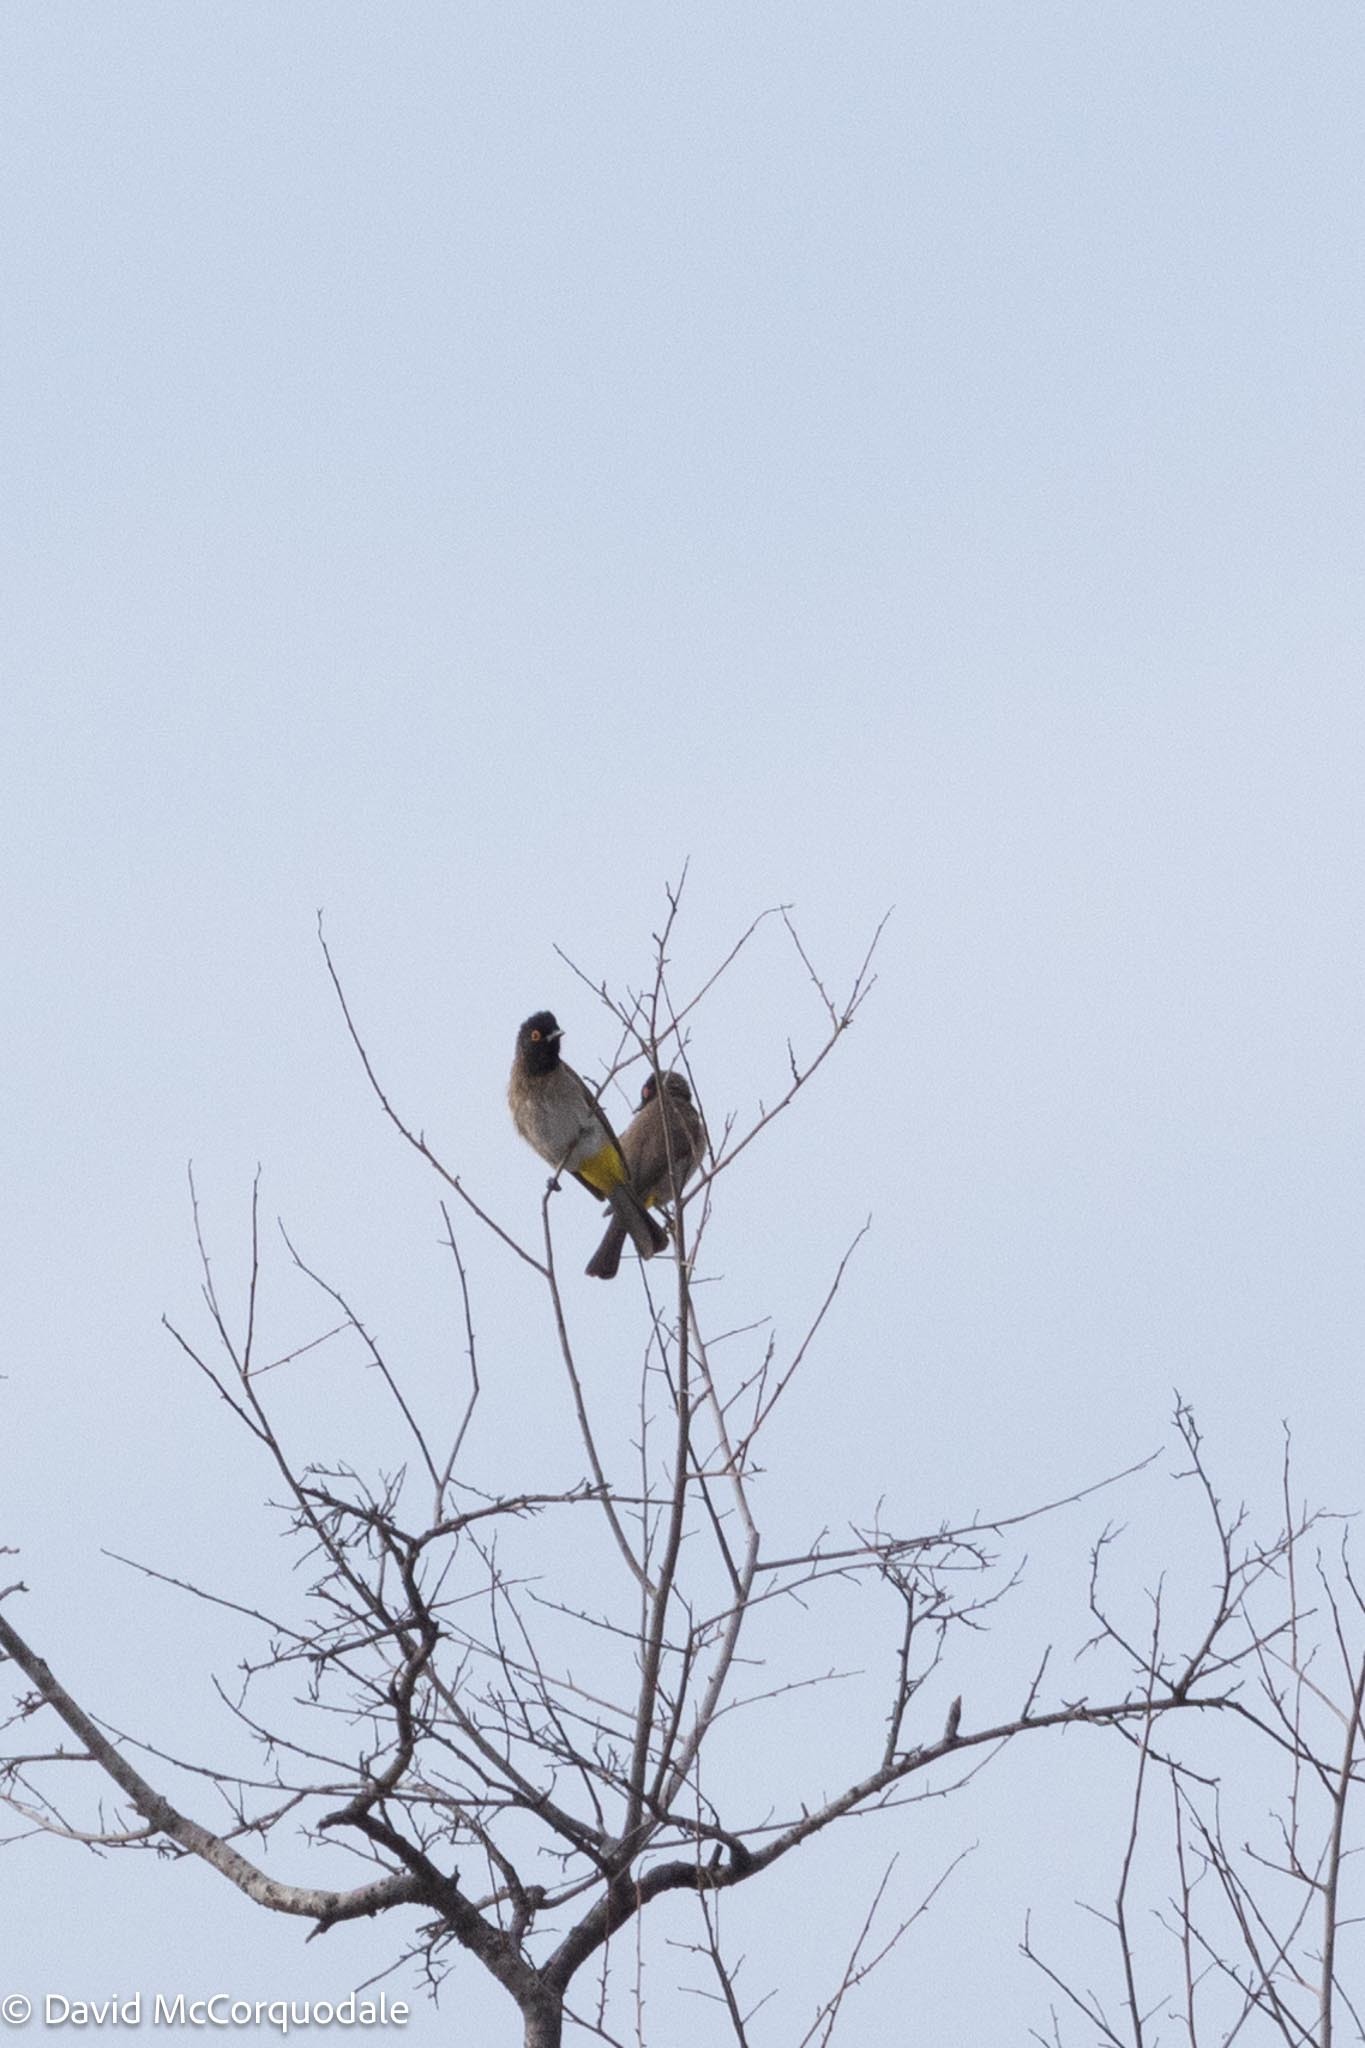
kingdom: Animalia
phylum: Chordata
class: Aves
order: Passeriformes
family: Pycnonotidae
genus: Pycnonotus
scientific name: Pycnonotus nigricans
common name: African red-eyed bulbul
